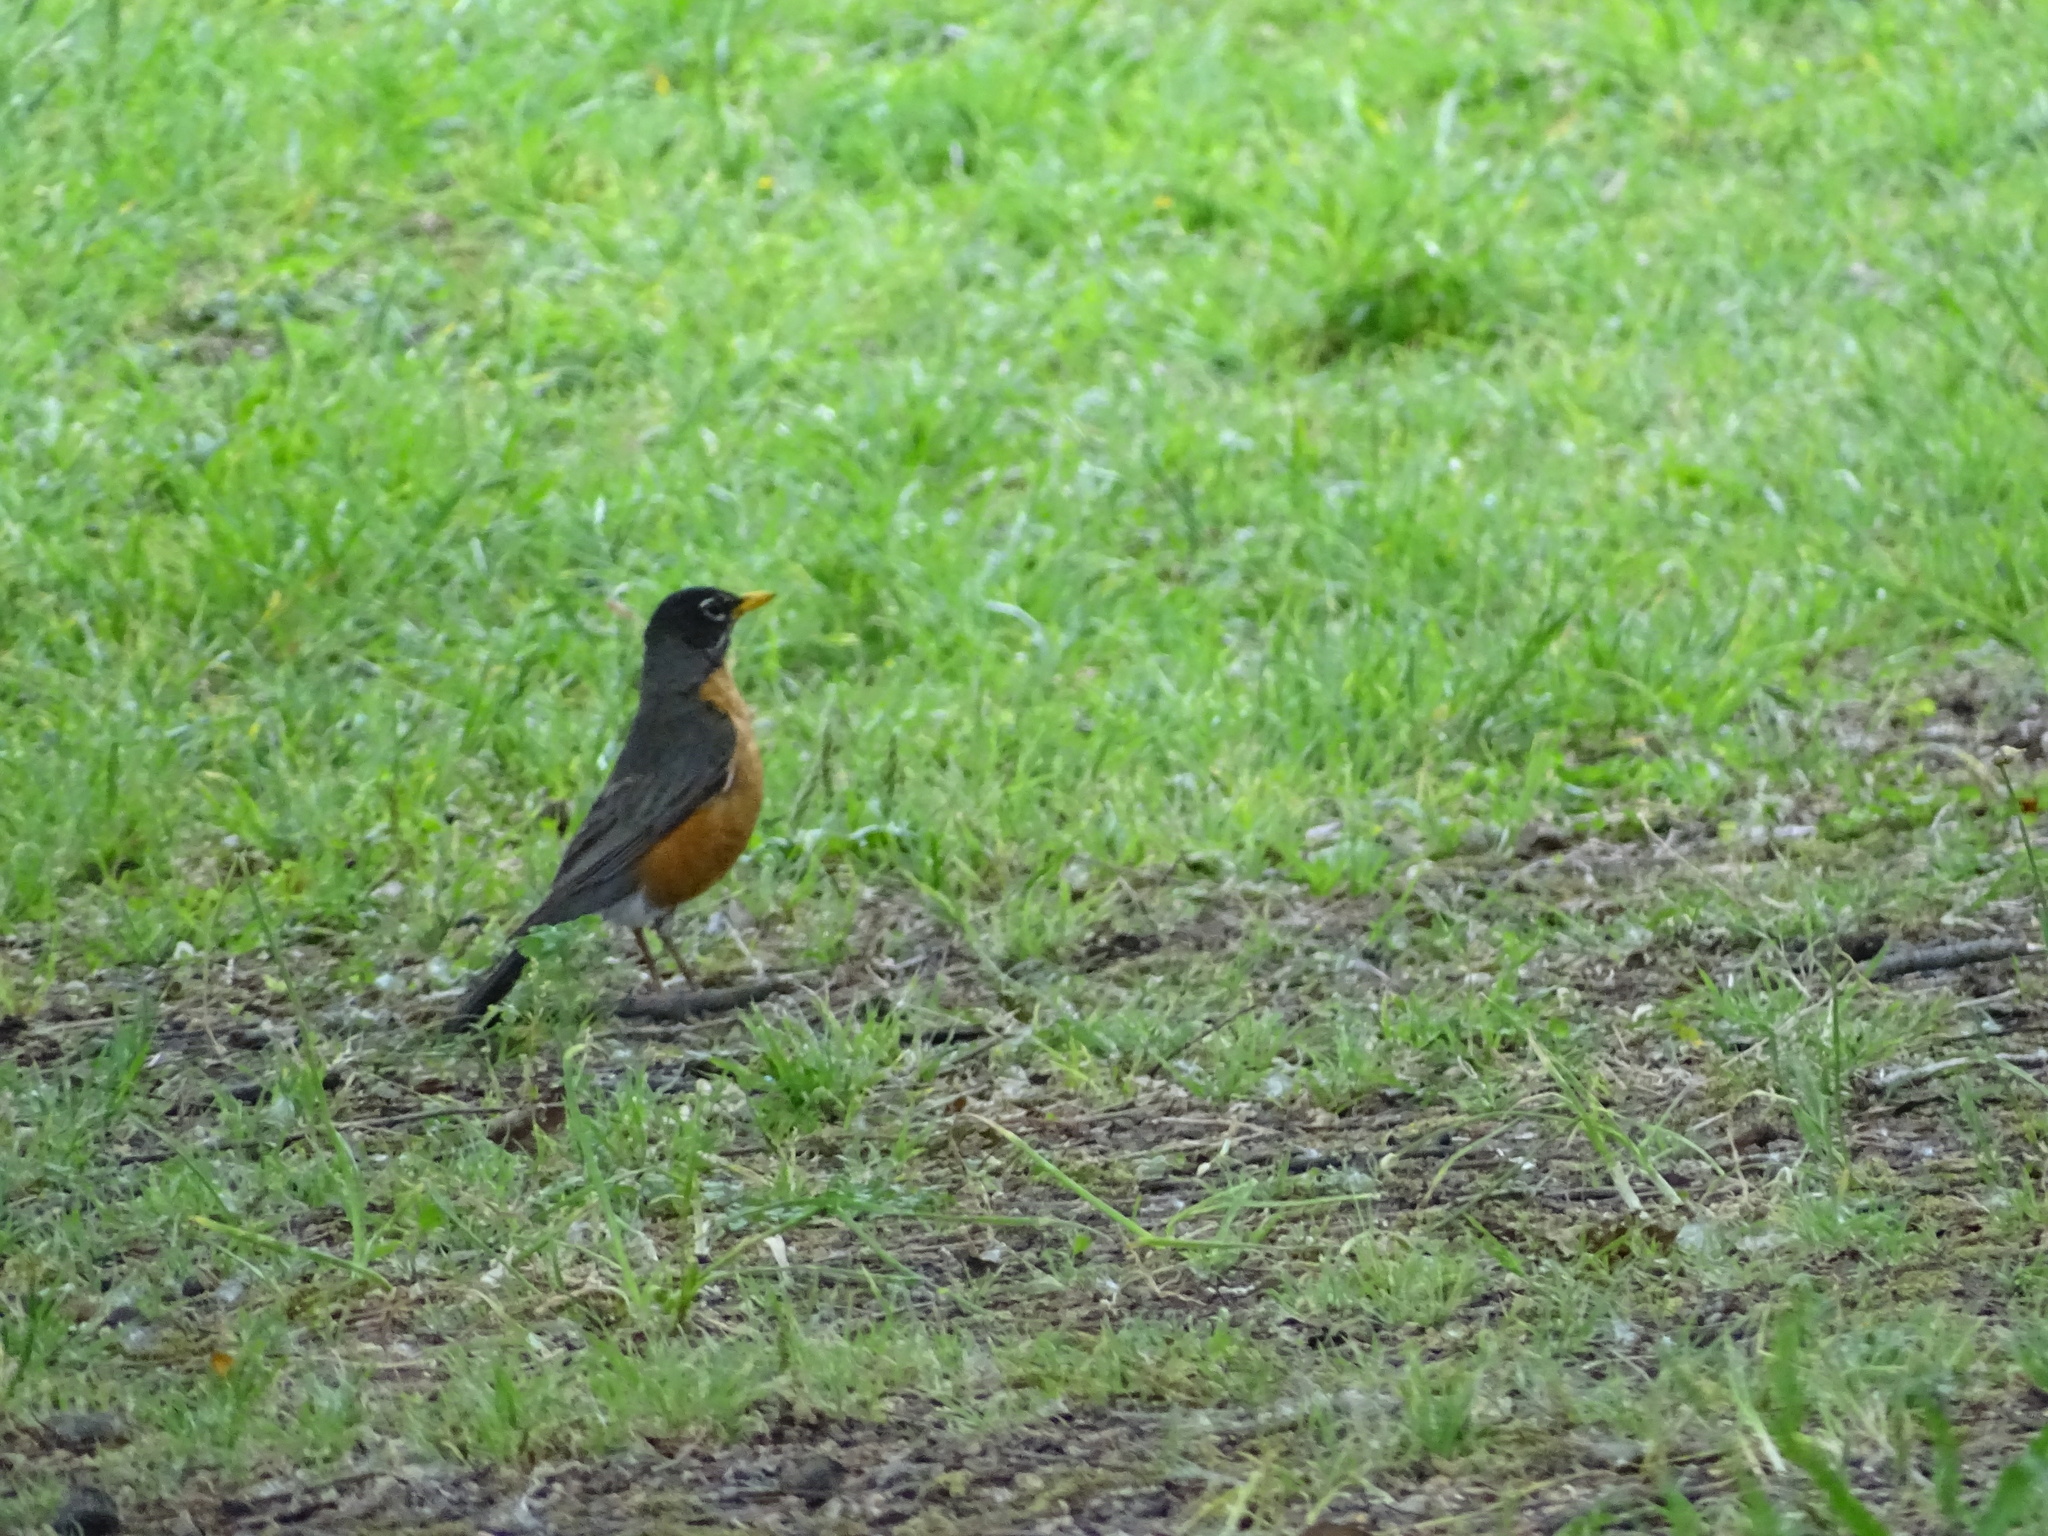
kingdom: Animalia
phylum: Chordata
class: Aves
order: Passeriformes
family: Turdidae
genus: Turdus
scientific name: Turdus migratorius
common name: American robin
